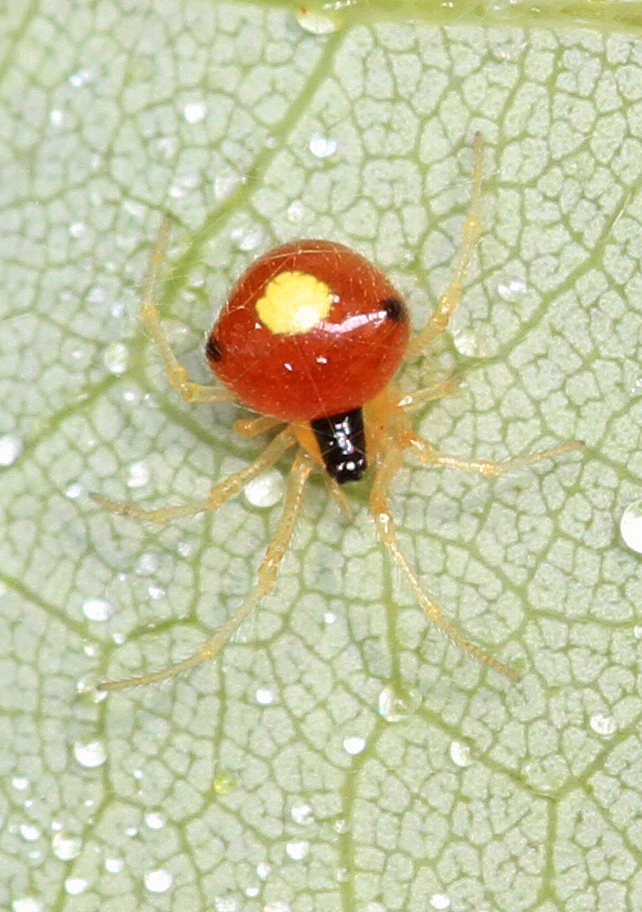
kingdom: Animalia
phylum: Arthropoda
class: Arachnida
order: Araneae
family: Theridiidae
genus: Theridula
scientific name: Theridula emertoni
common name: Emerton's bitubercled cobweaver
